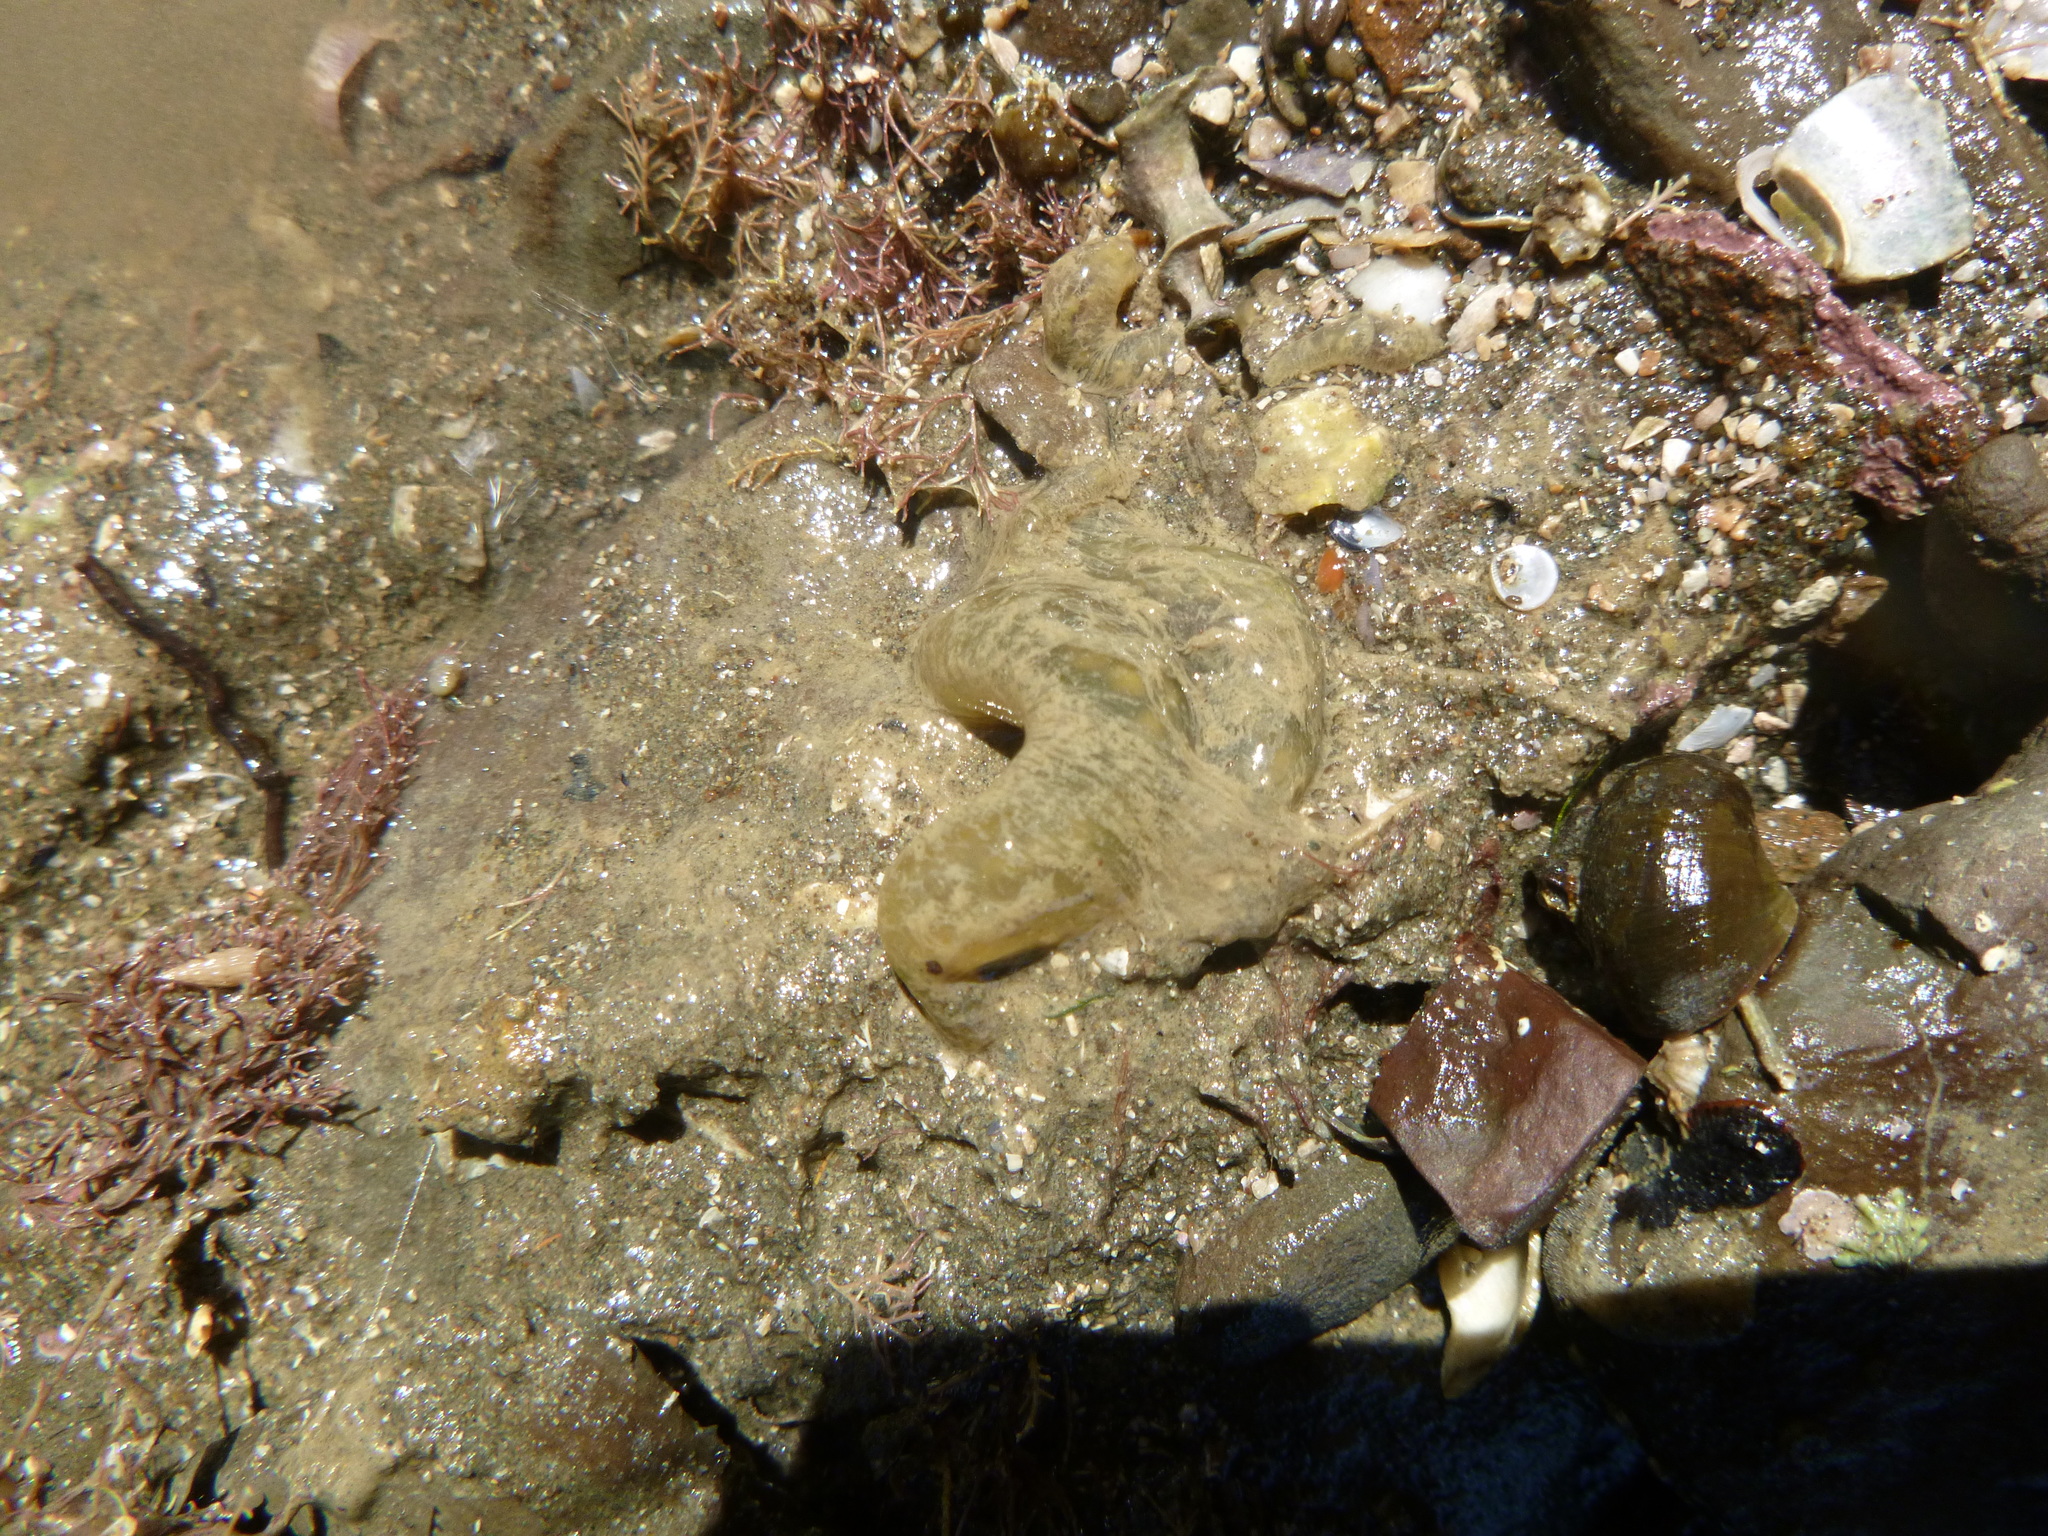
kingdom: Animalia
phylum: Annelida
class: Polychaeta
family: Flabelligeridae
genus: Flabelligera
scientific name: Flabelligera bicolor
